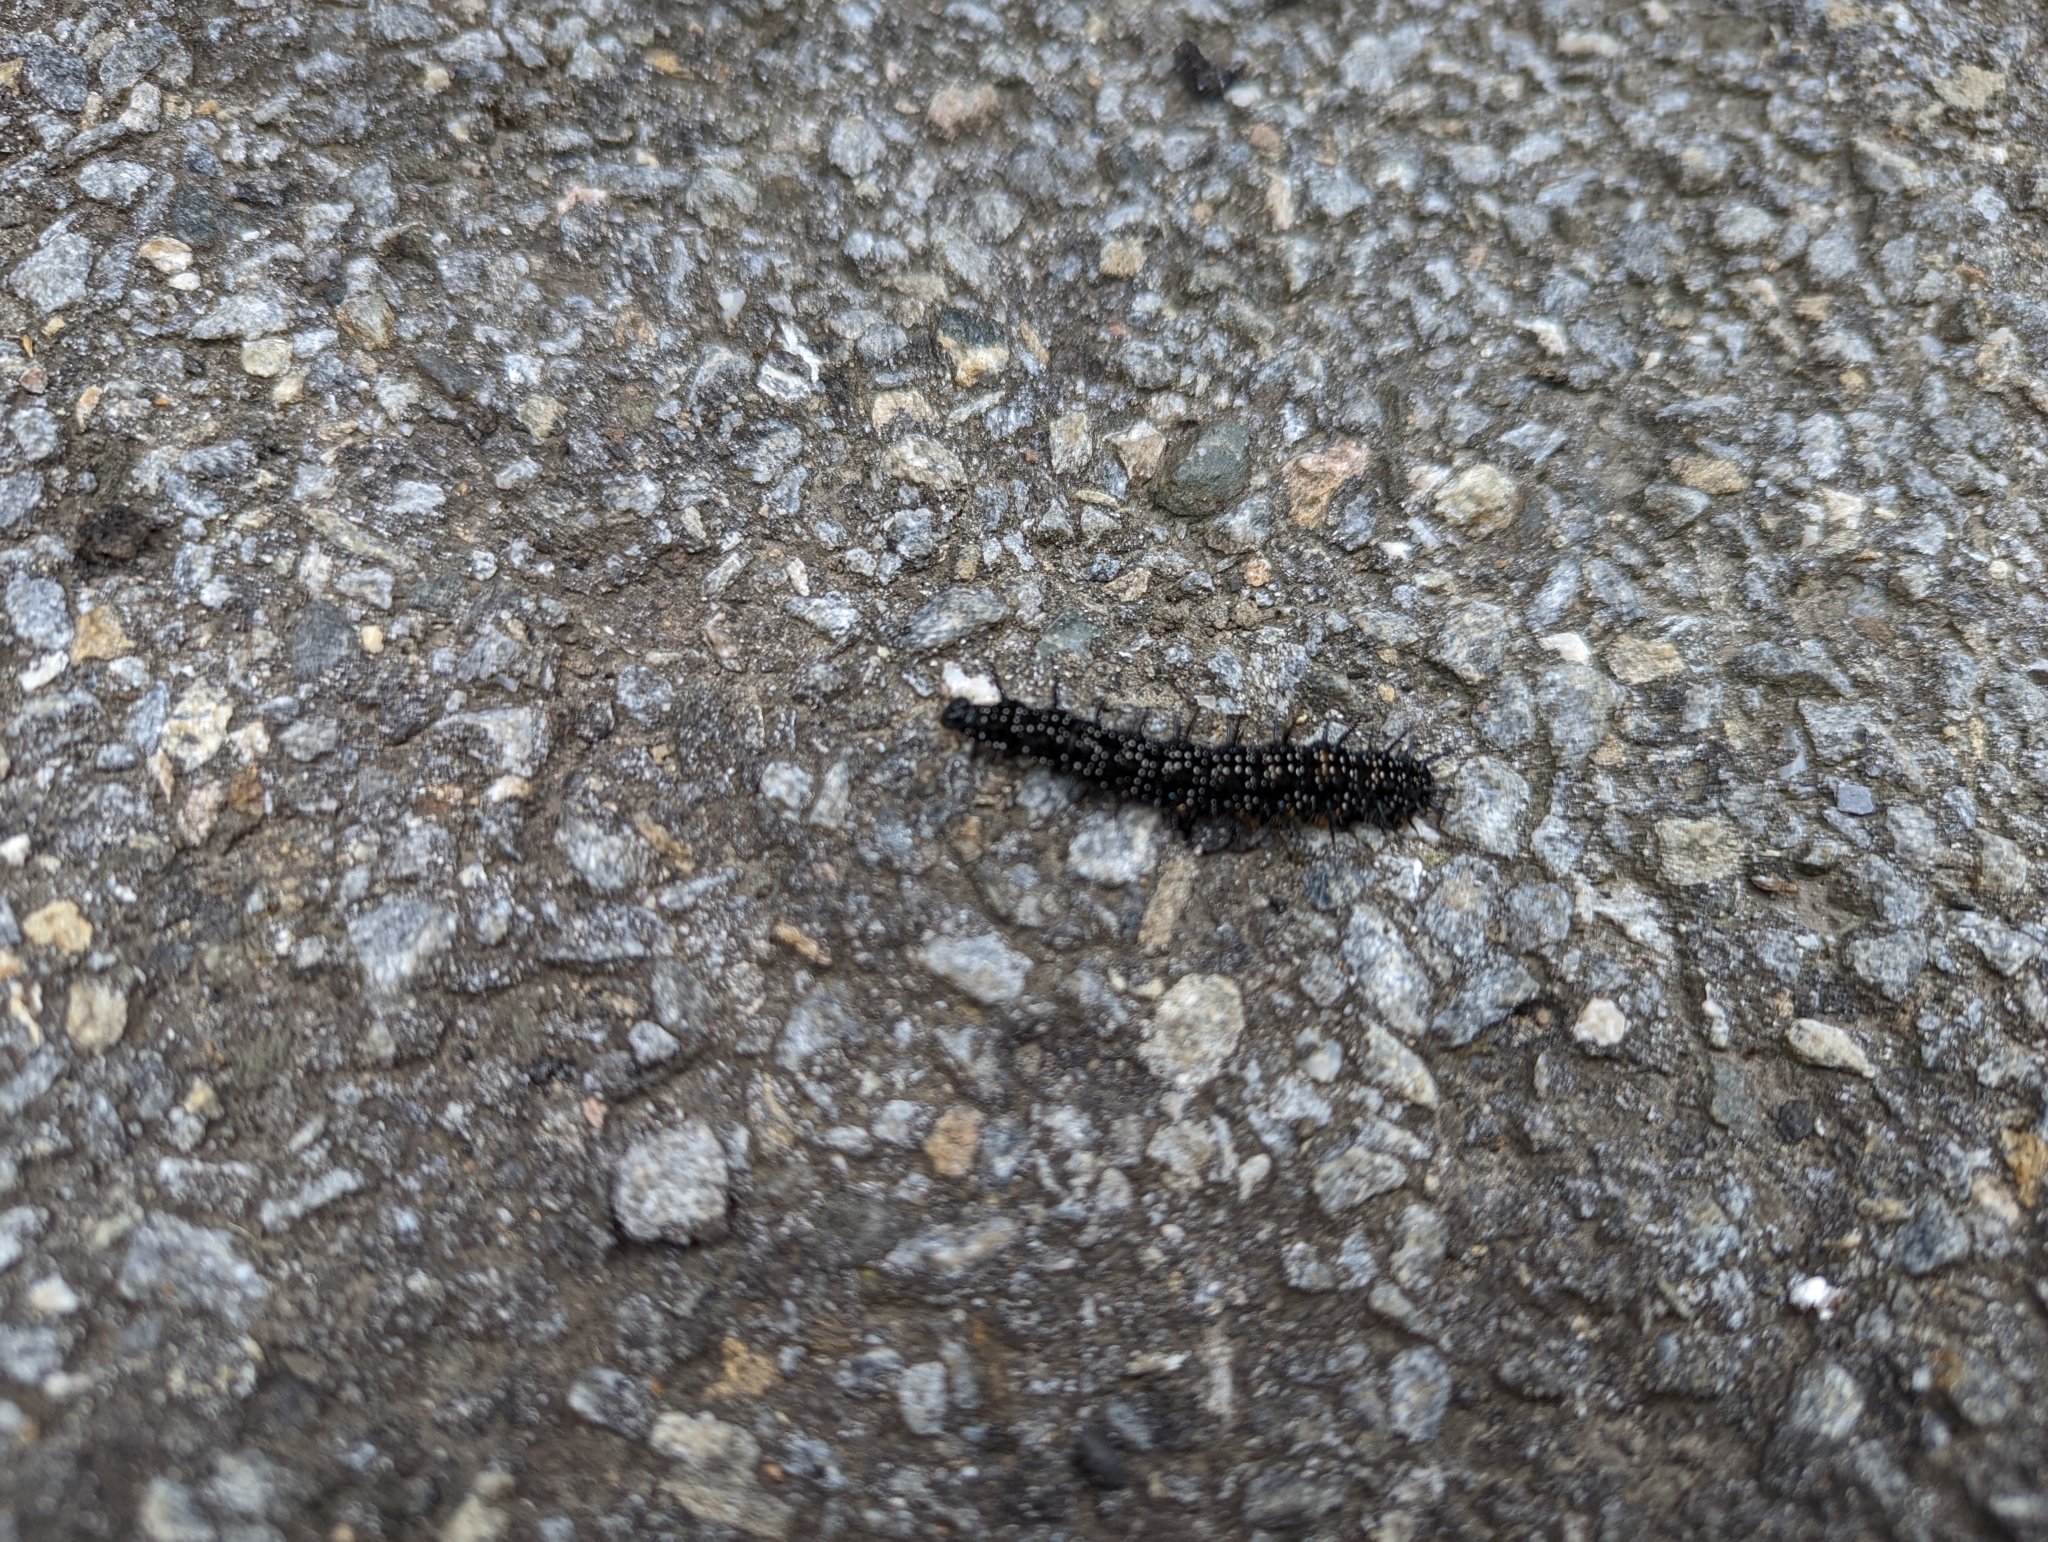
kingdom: Animalia
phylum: Arthropoda
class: Insecta
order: Lepidoptera
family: Nymphalidae
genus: Aglais
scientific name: Aglais io
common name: Peacock
